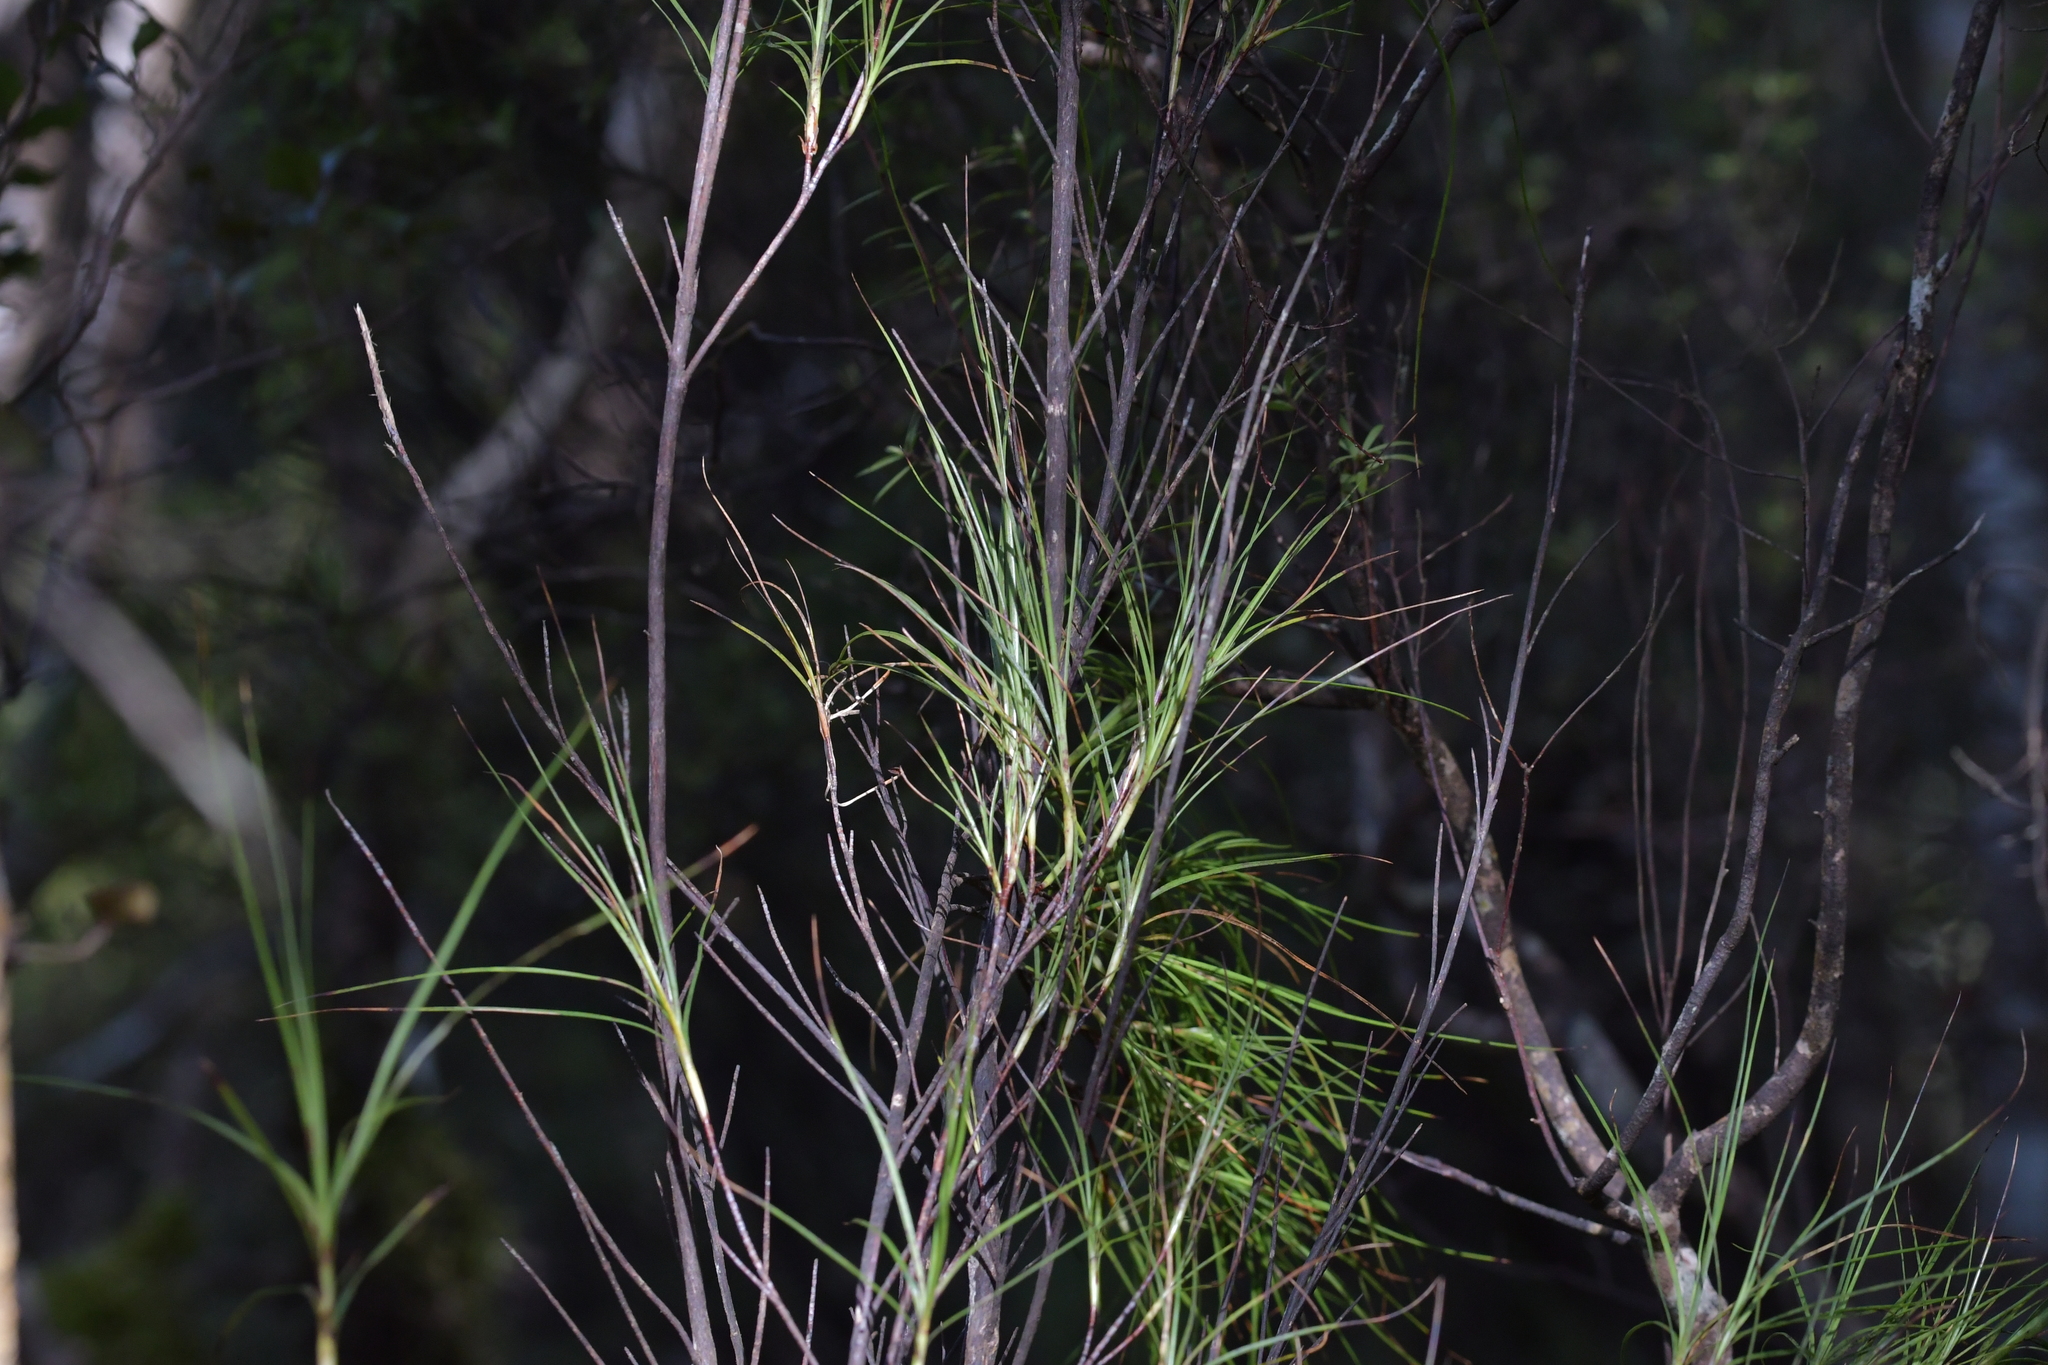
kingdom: Plantae
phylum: Tracheophyta
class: Magnoliopsida
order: Ericales
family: Ericaceae
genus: Dracophyllum
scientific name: Dracophyllum filifolium
